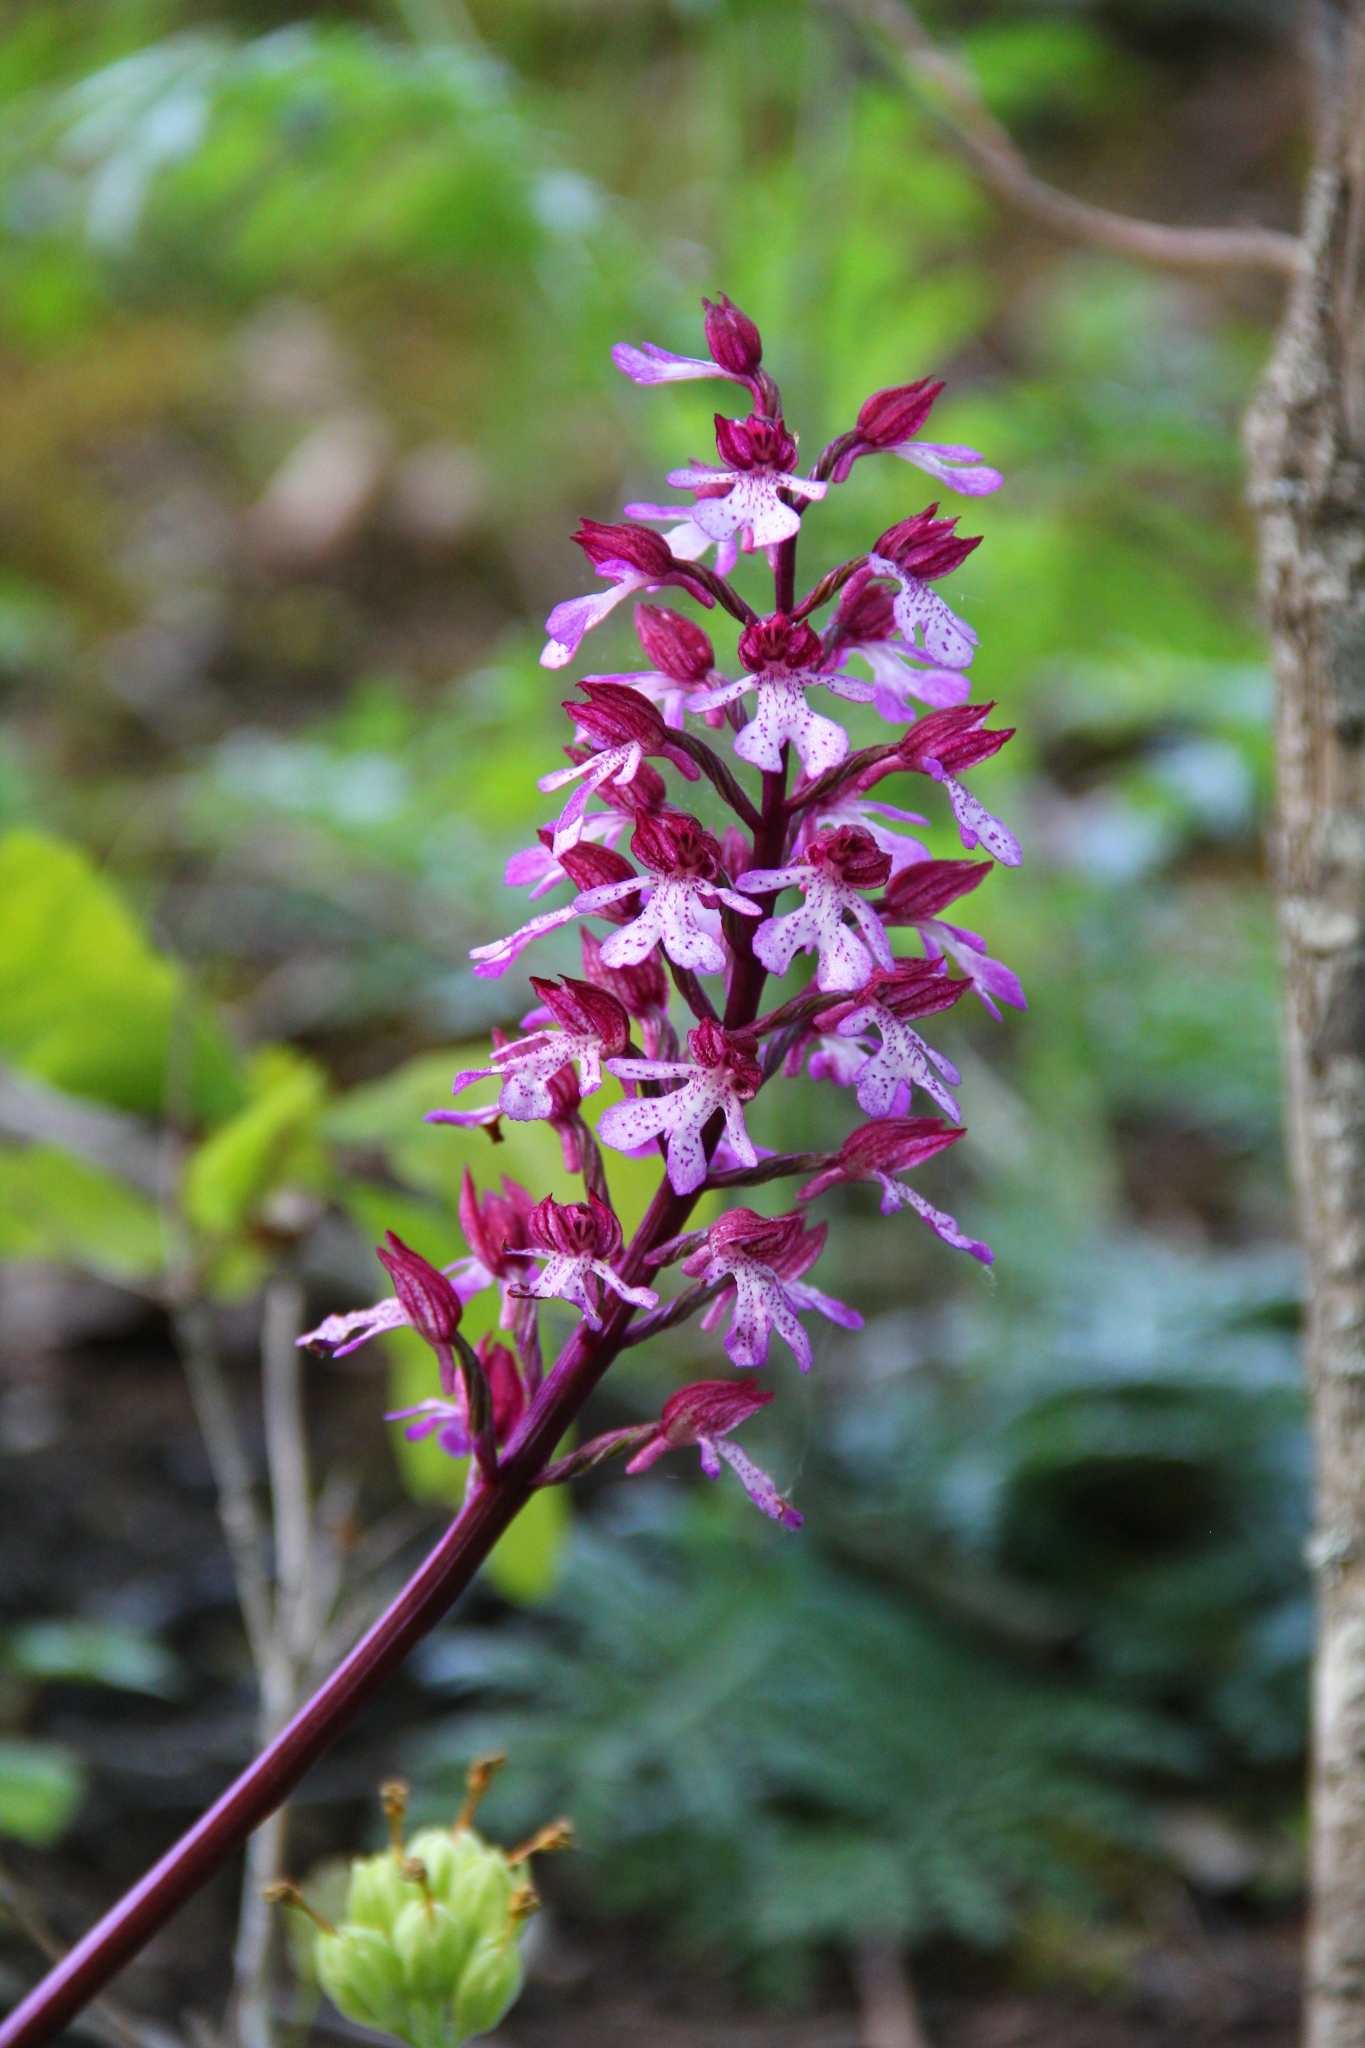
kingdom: Plantae
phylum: Tracheophyta
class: Liliopsida
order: Asparagales
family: Orchidaceae
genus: Orchis
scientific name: Orchis hybrida
